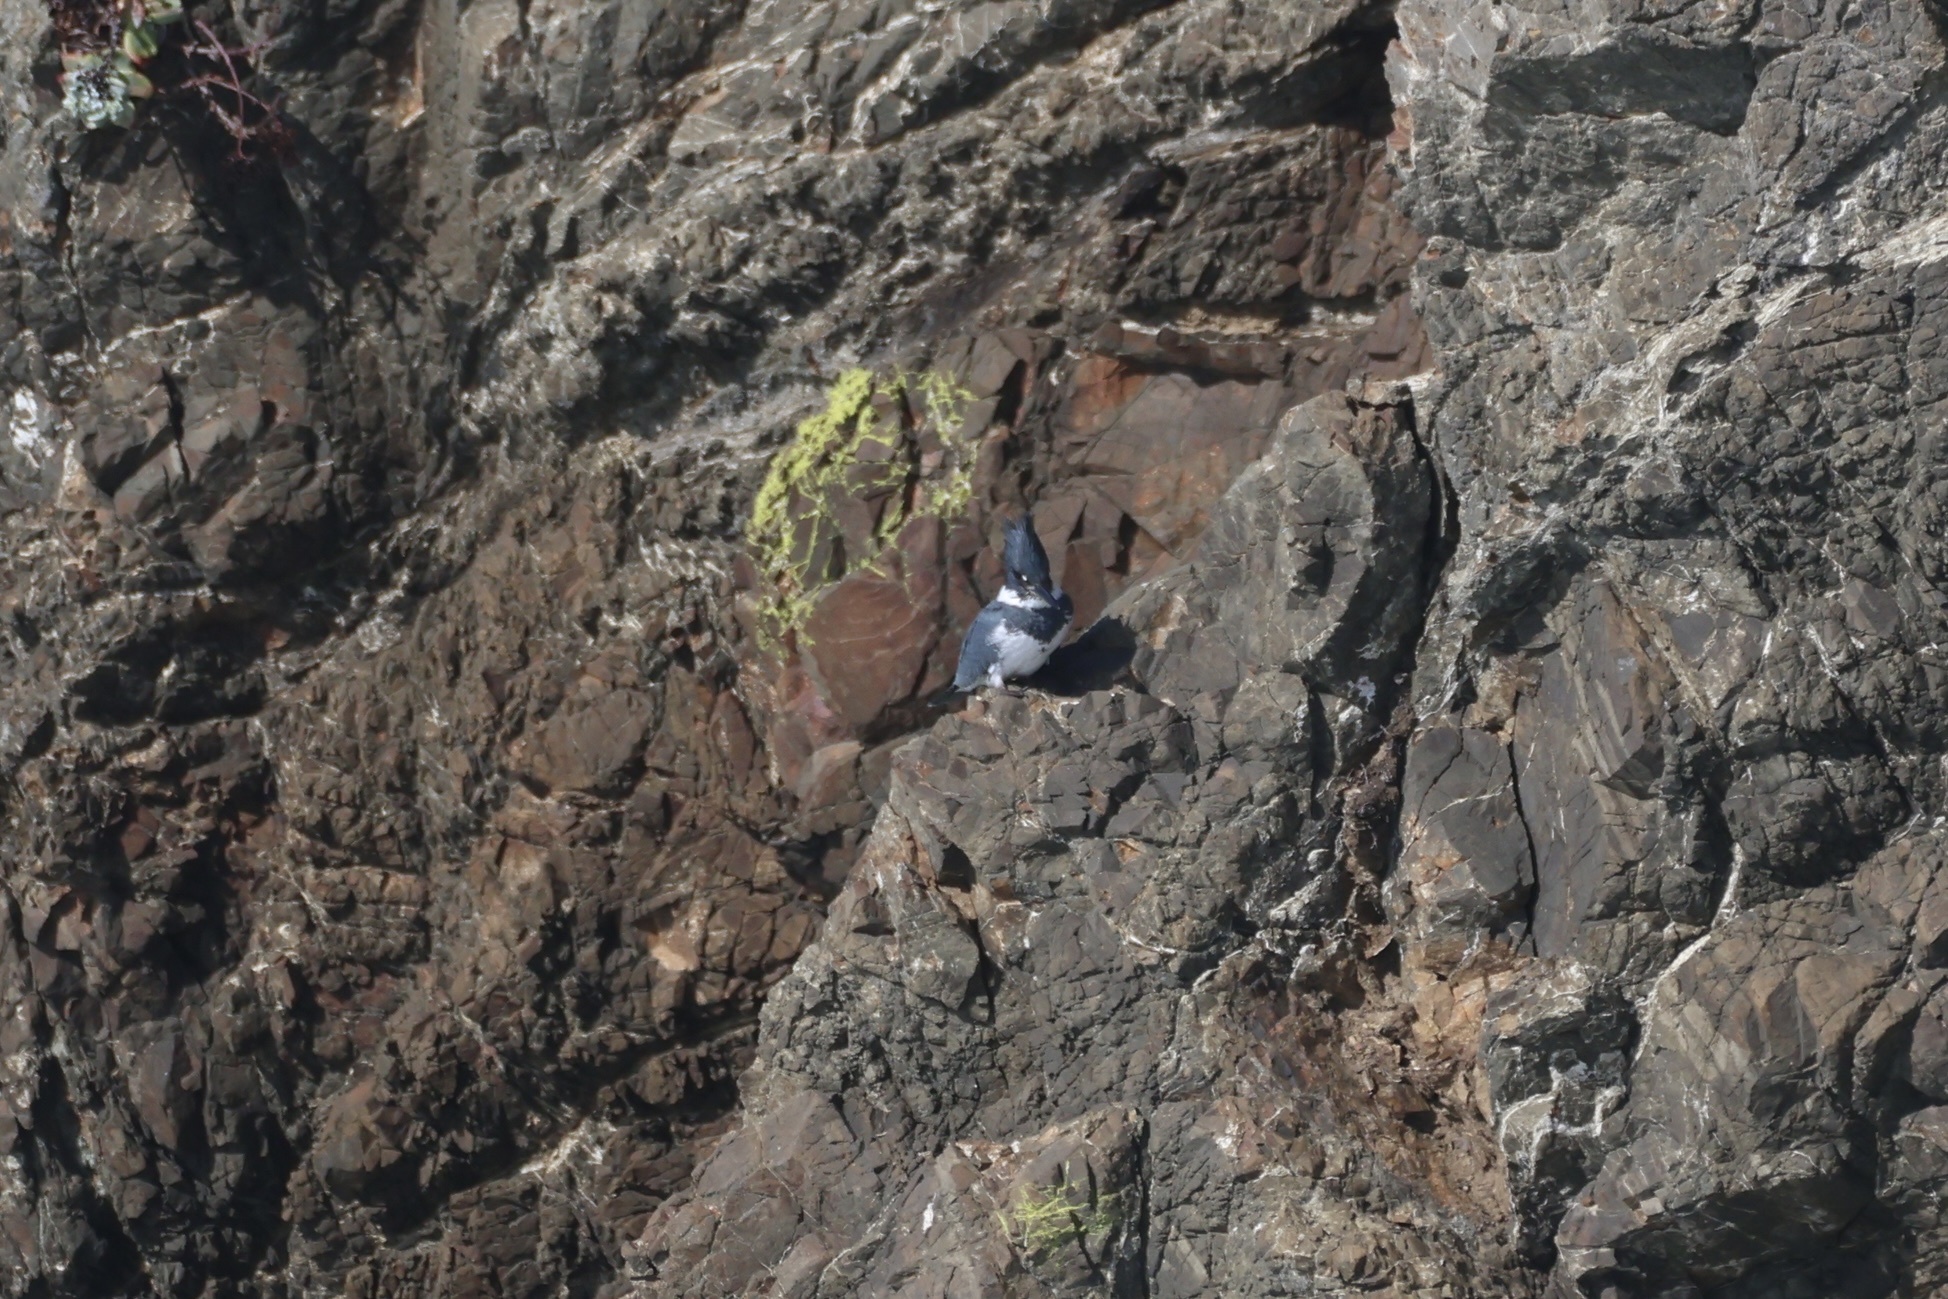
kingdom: Animalia
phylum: Chordata
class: Aves
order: Coraciiformes
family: Alcedinidae
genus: Megaceryle
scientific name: Megaceryle alcyon
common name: Belted kingfisher
